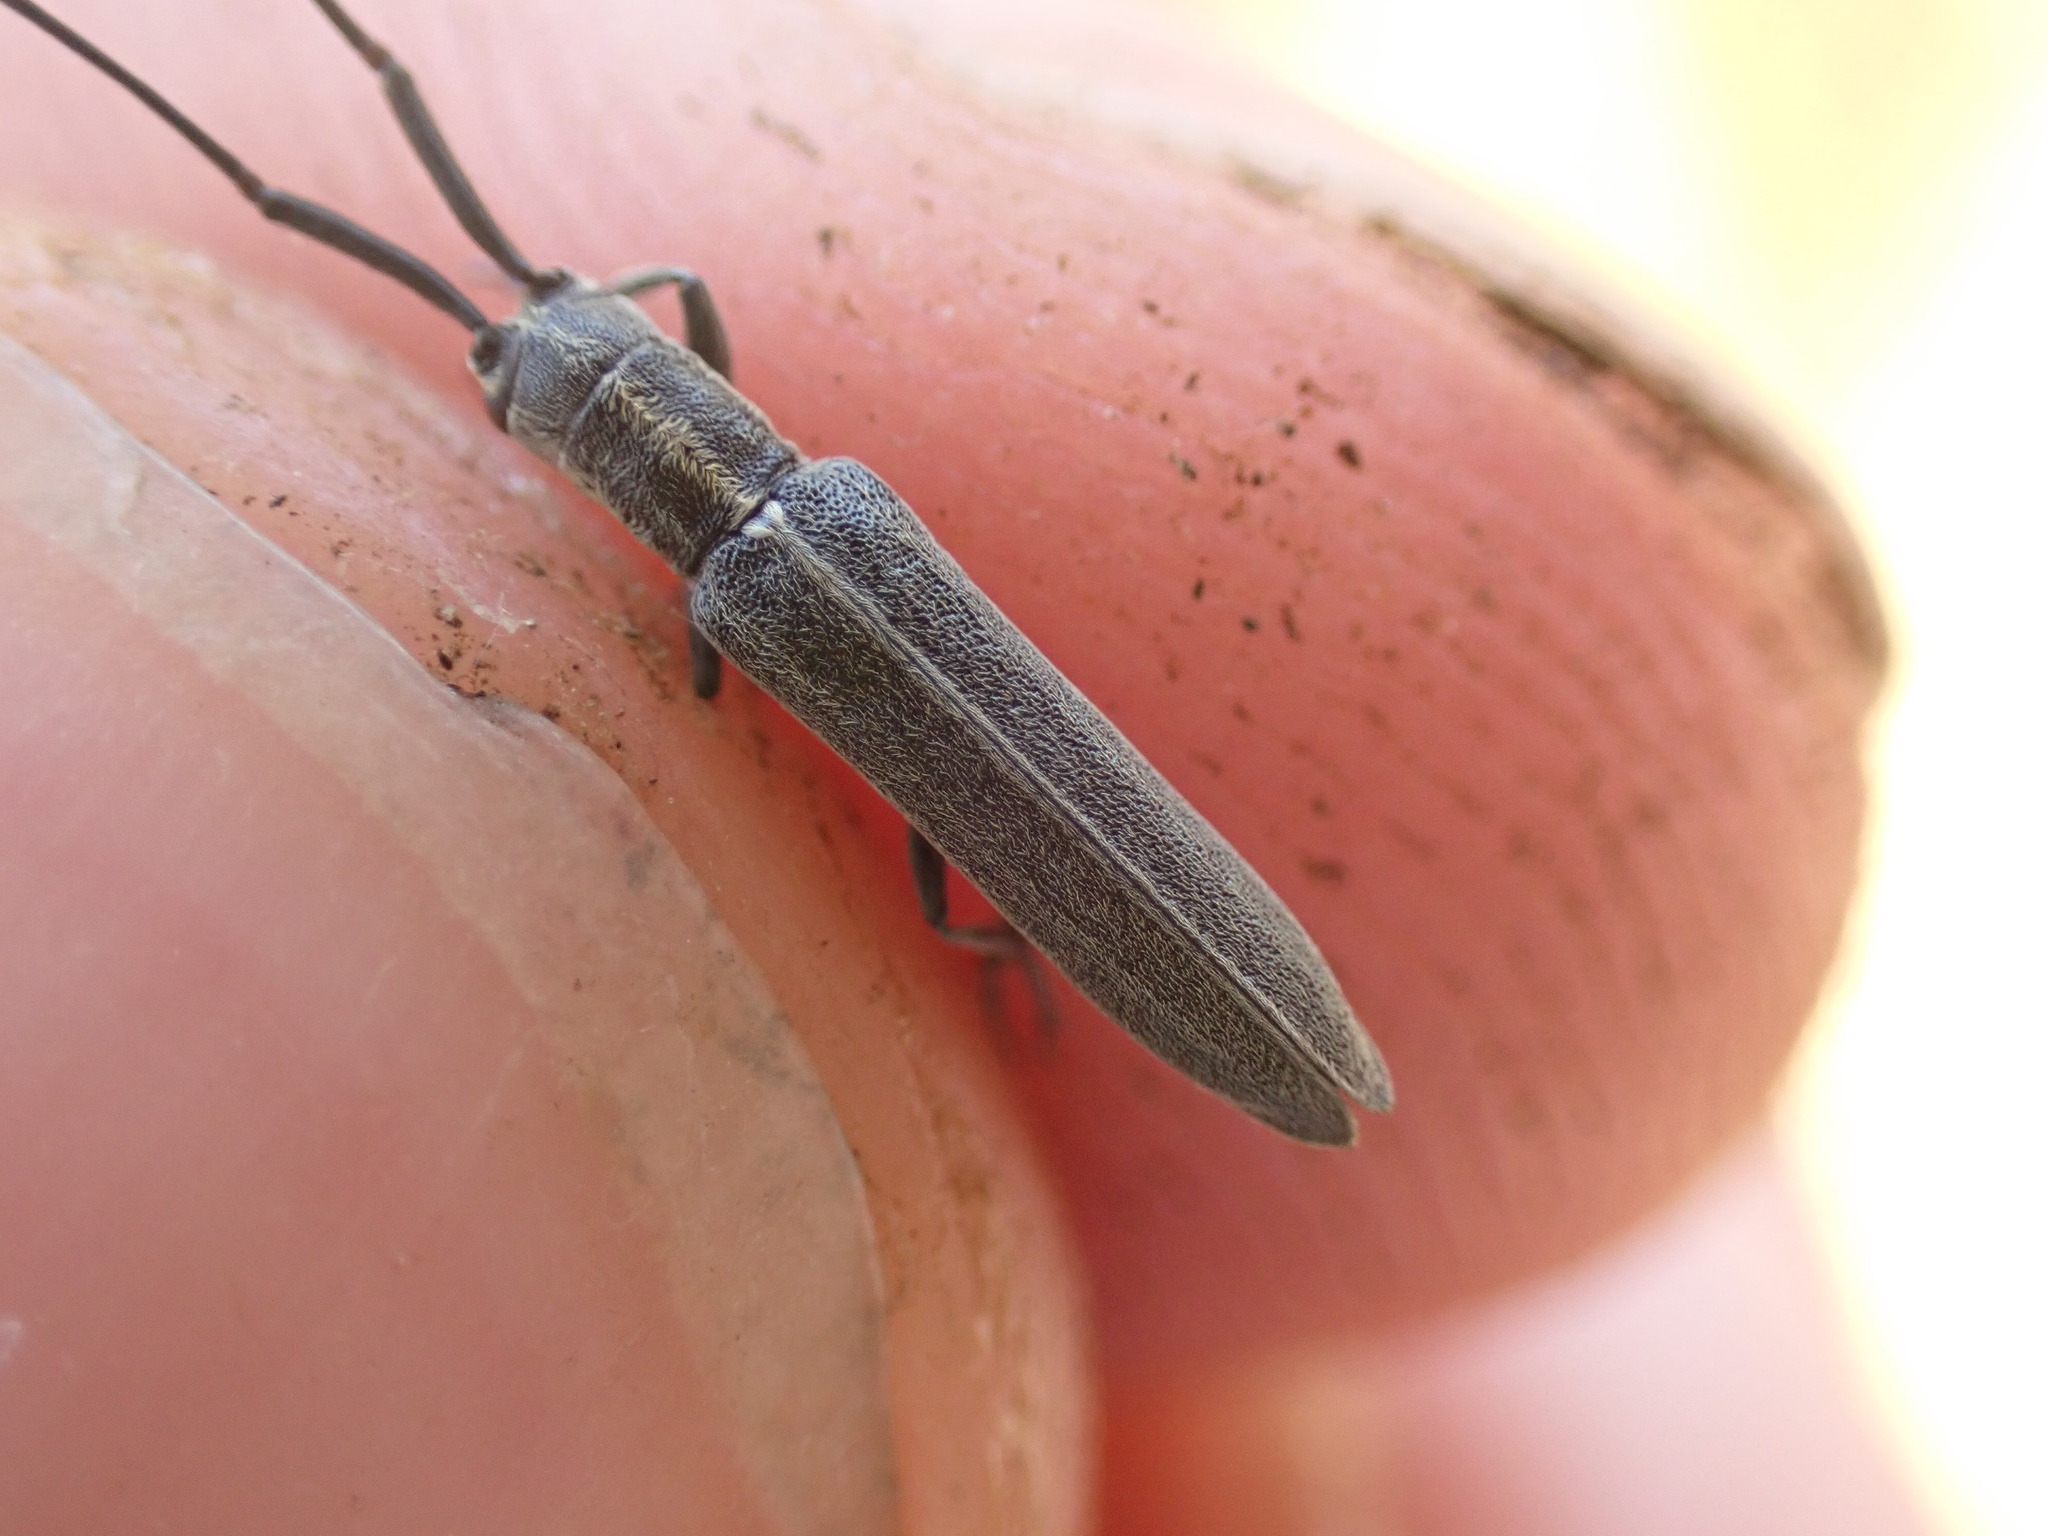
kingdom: Animalia
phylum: Arthropoda
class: Insecta
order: Coleoptera
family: Cerambycidae
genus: Calamobius
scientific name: Calamobius filum
